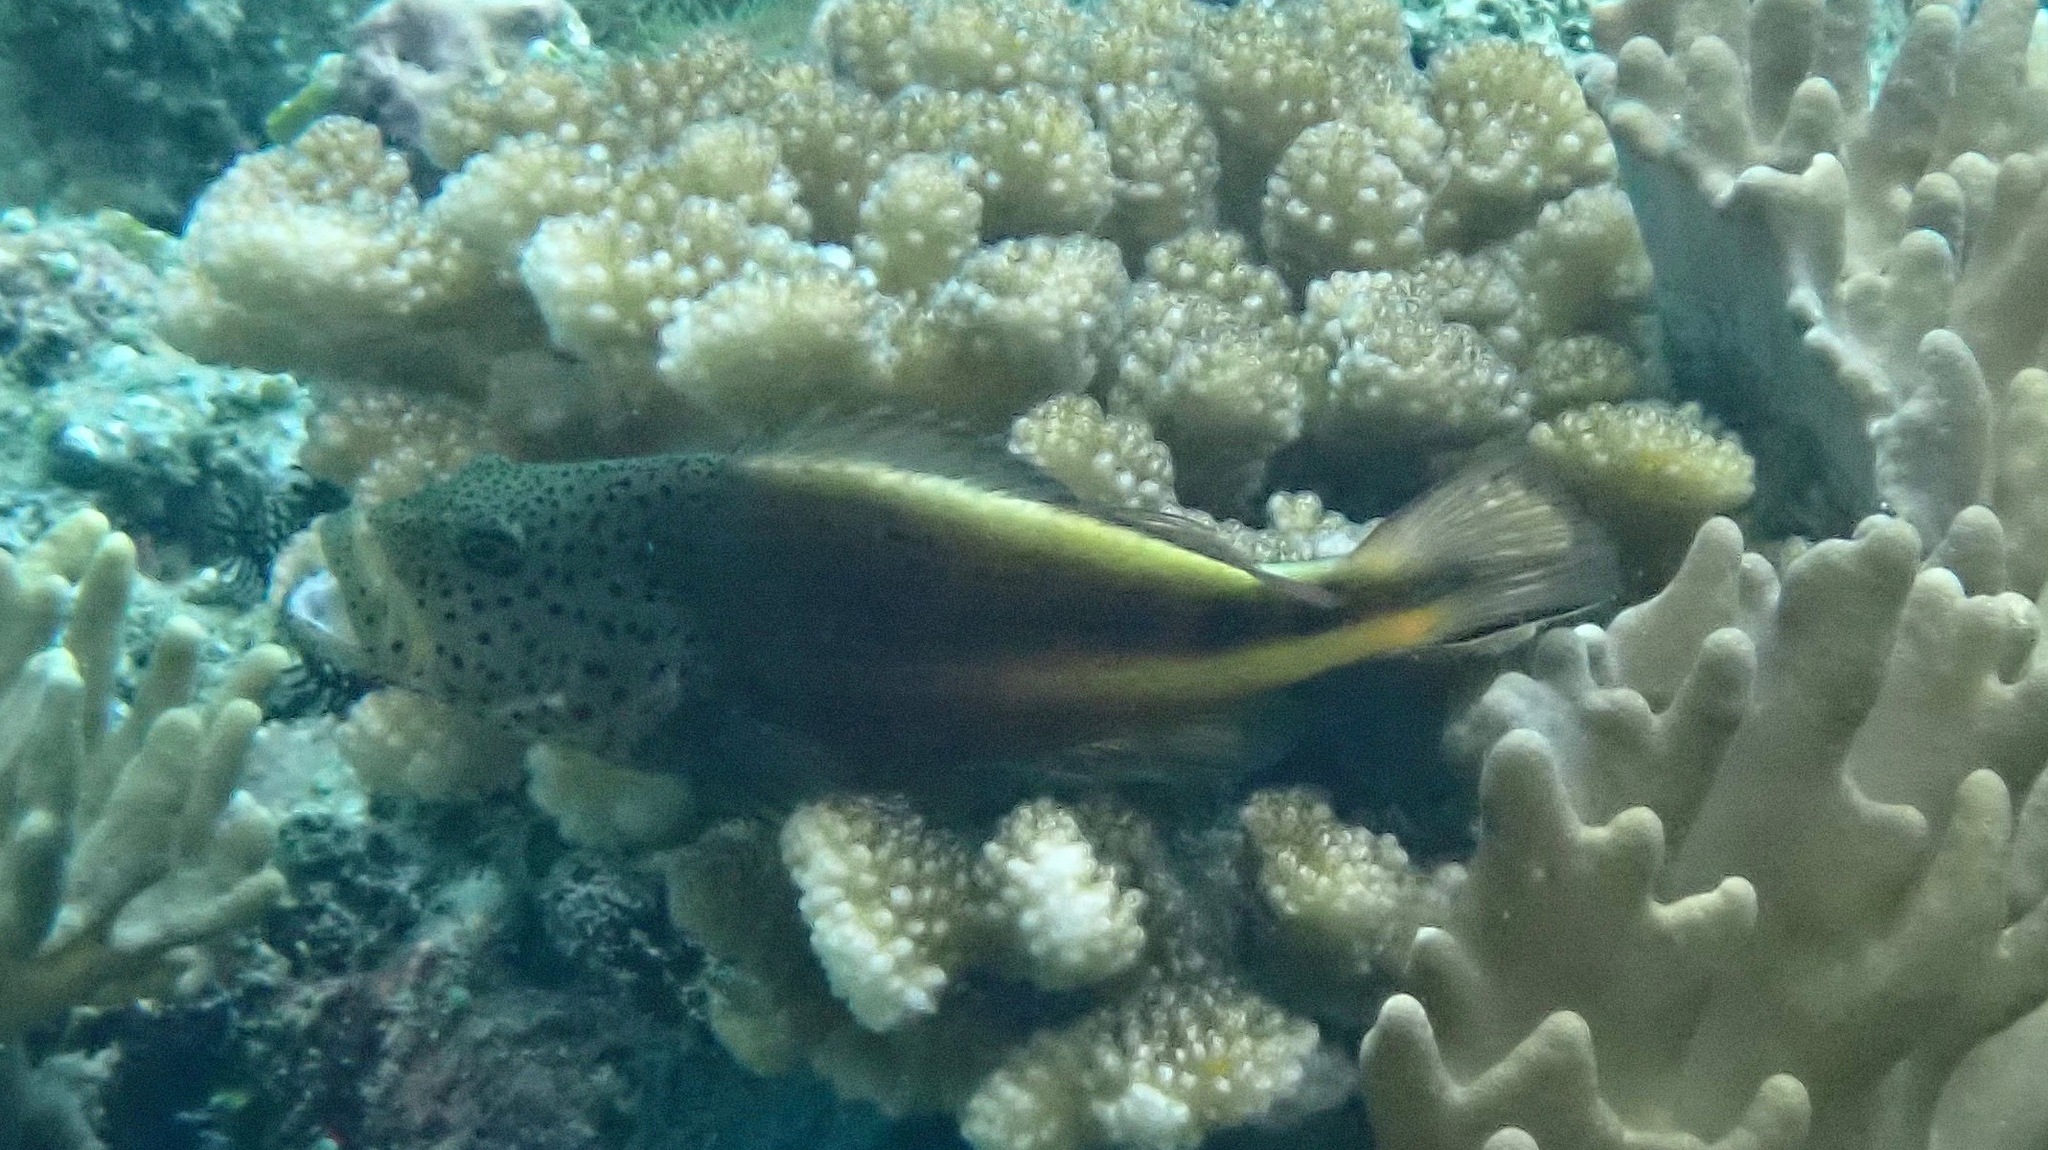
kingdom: Animalia
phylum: Chordata
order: Perciformes
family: Cirrhitidae
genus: Paracirrhites
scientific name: Paracirrhites forsteri
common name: Freckled hawkfish
